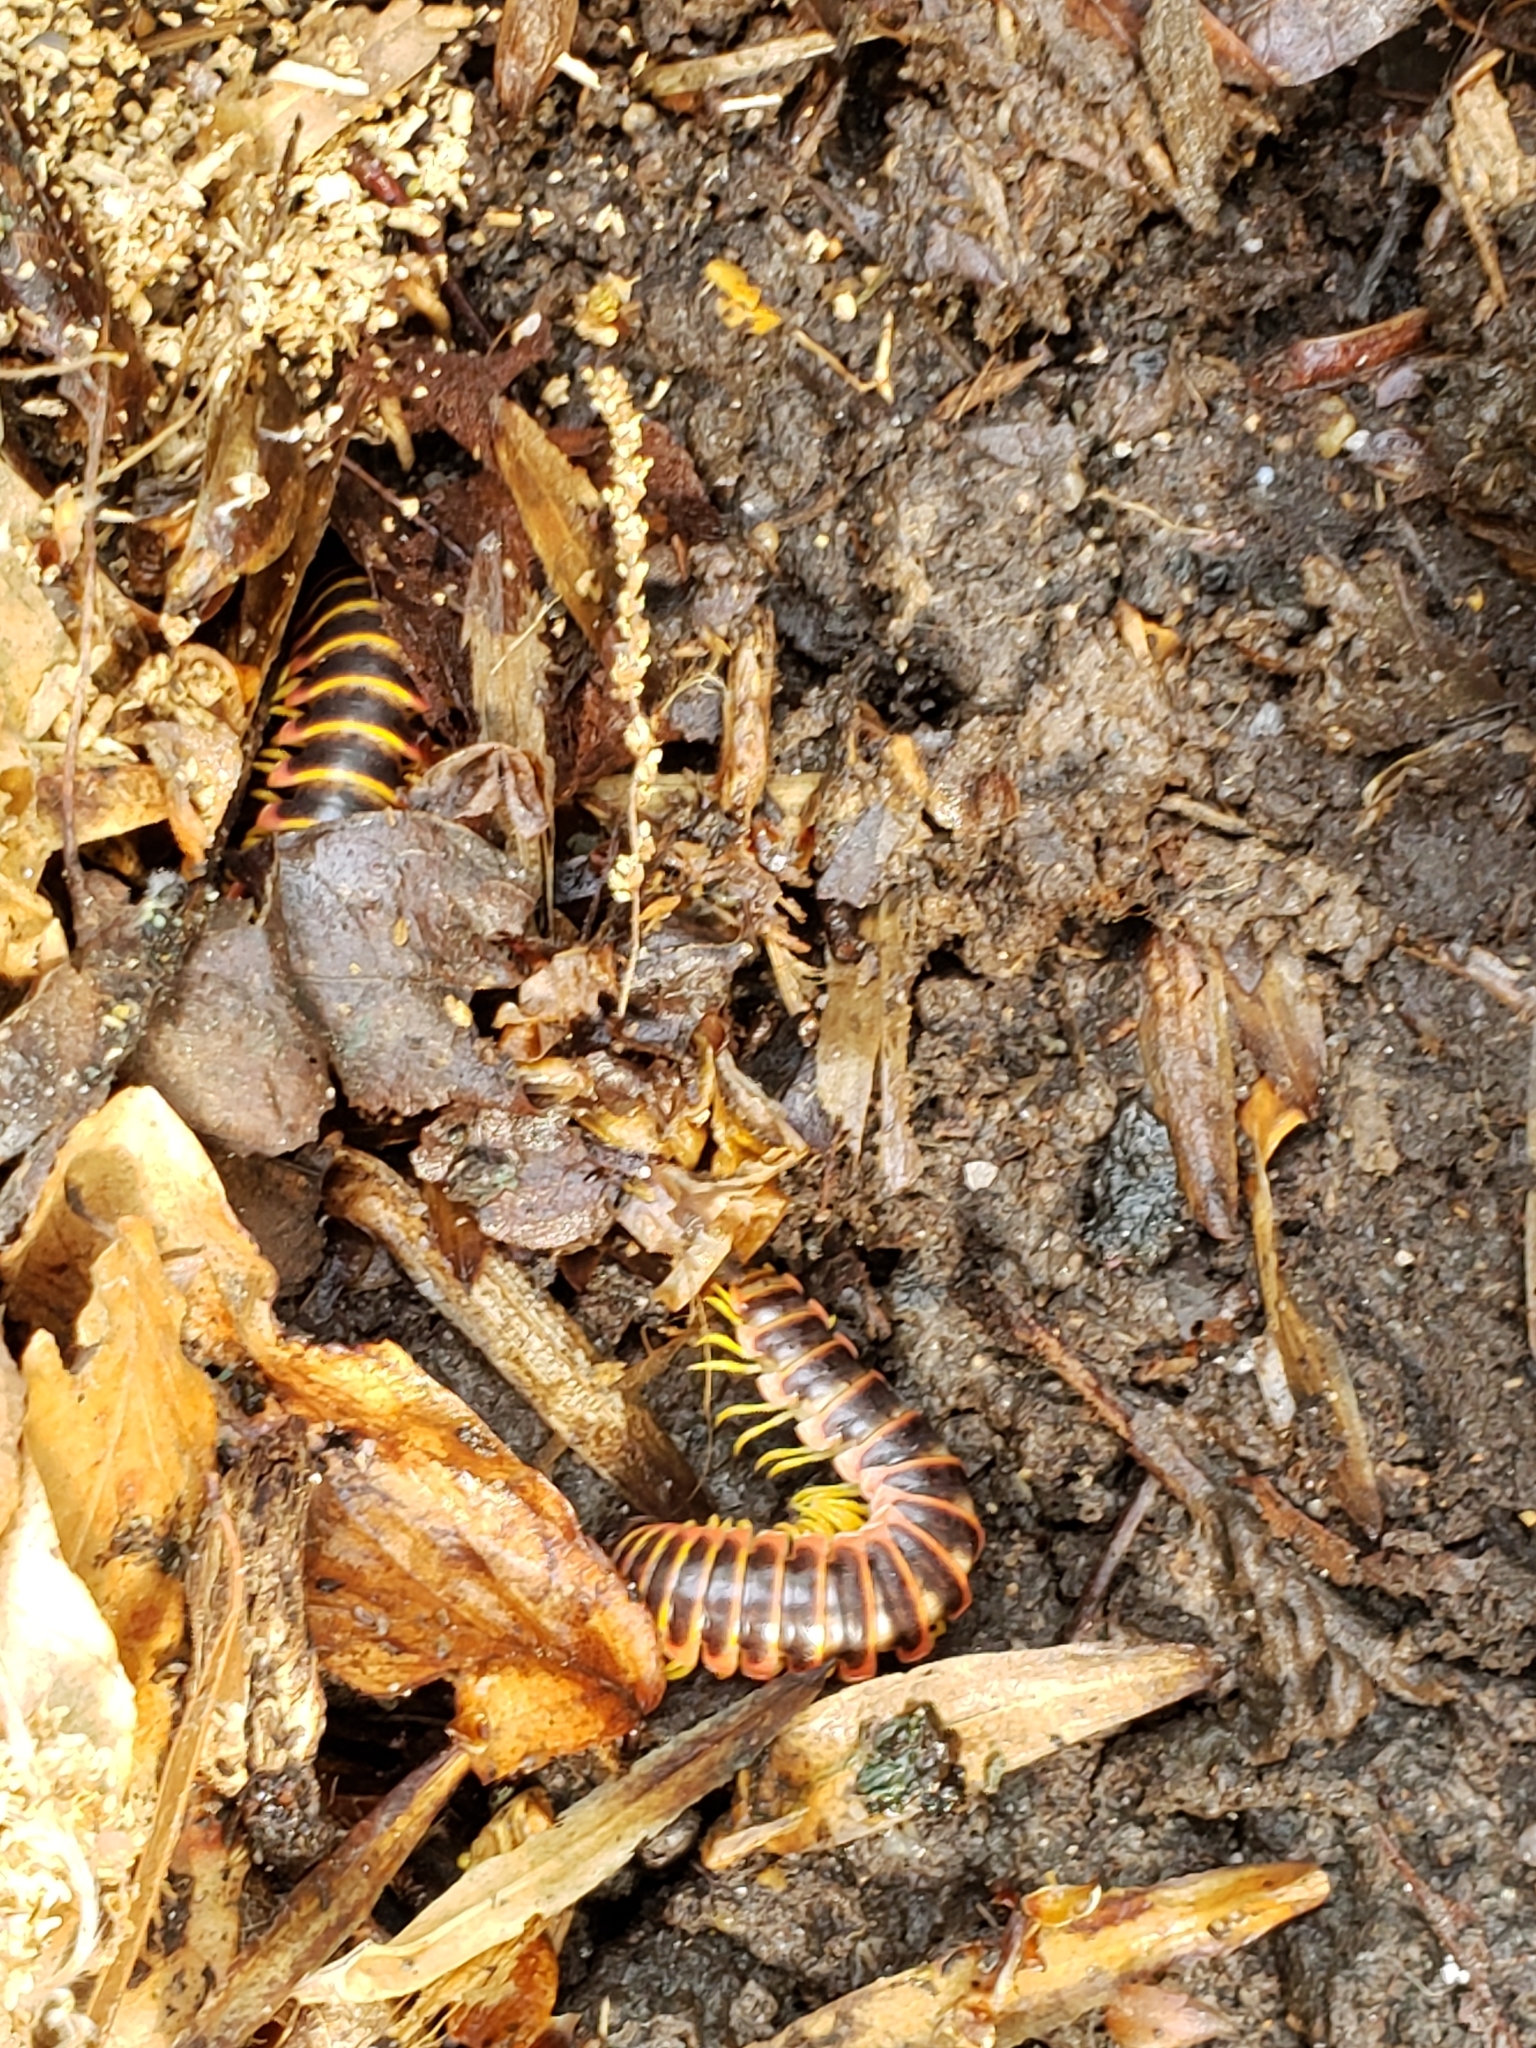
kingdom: Animalia
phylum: Arthropoda
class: Diplopoda
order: Polydesmida
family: Xystodesmidae
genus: Apheloria
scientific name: Apheloria virginiensis
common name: Black-and-gold flat millipede
